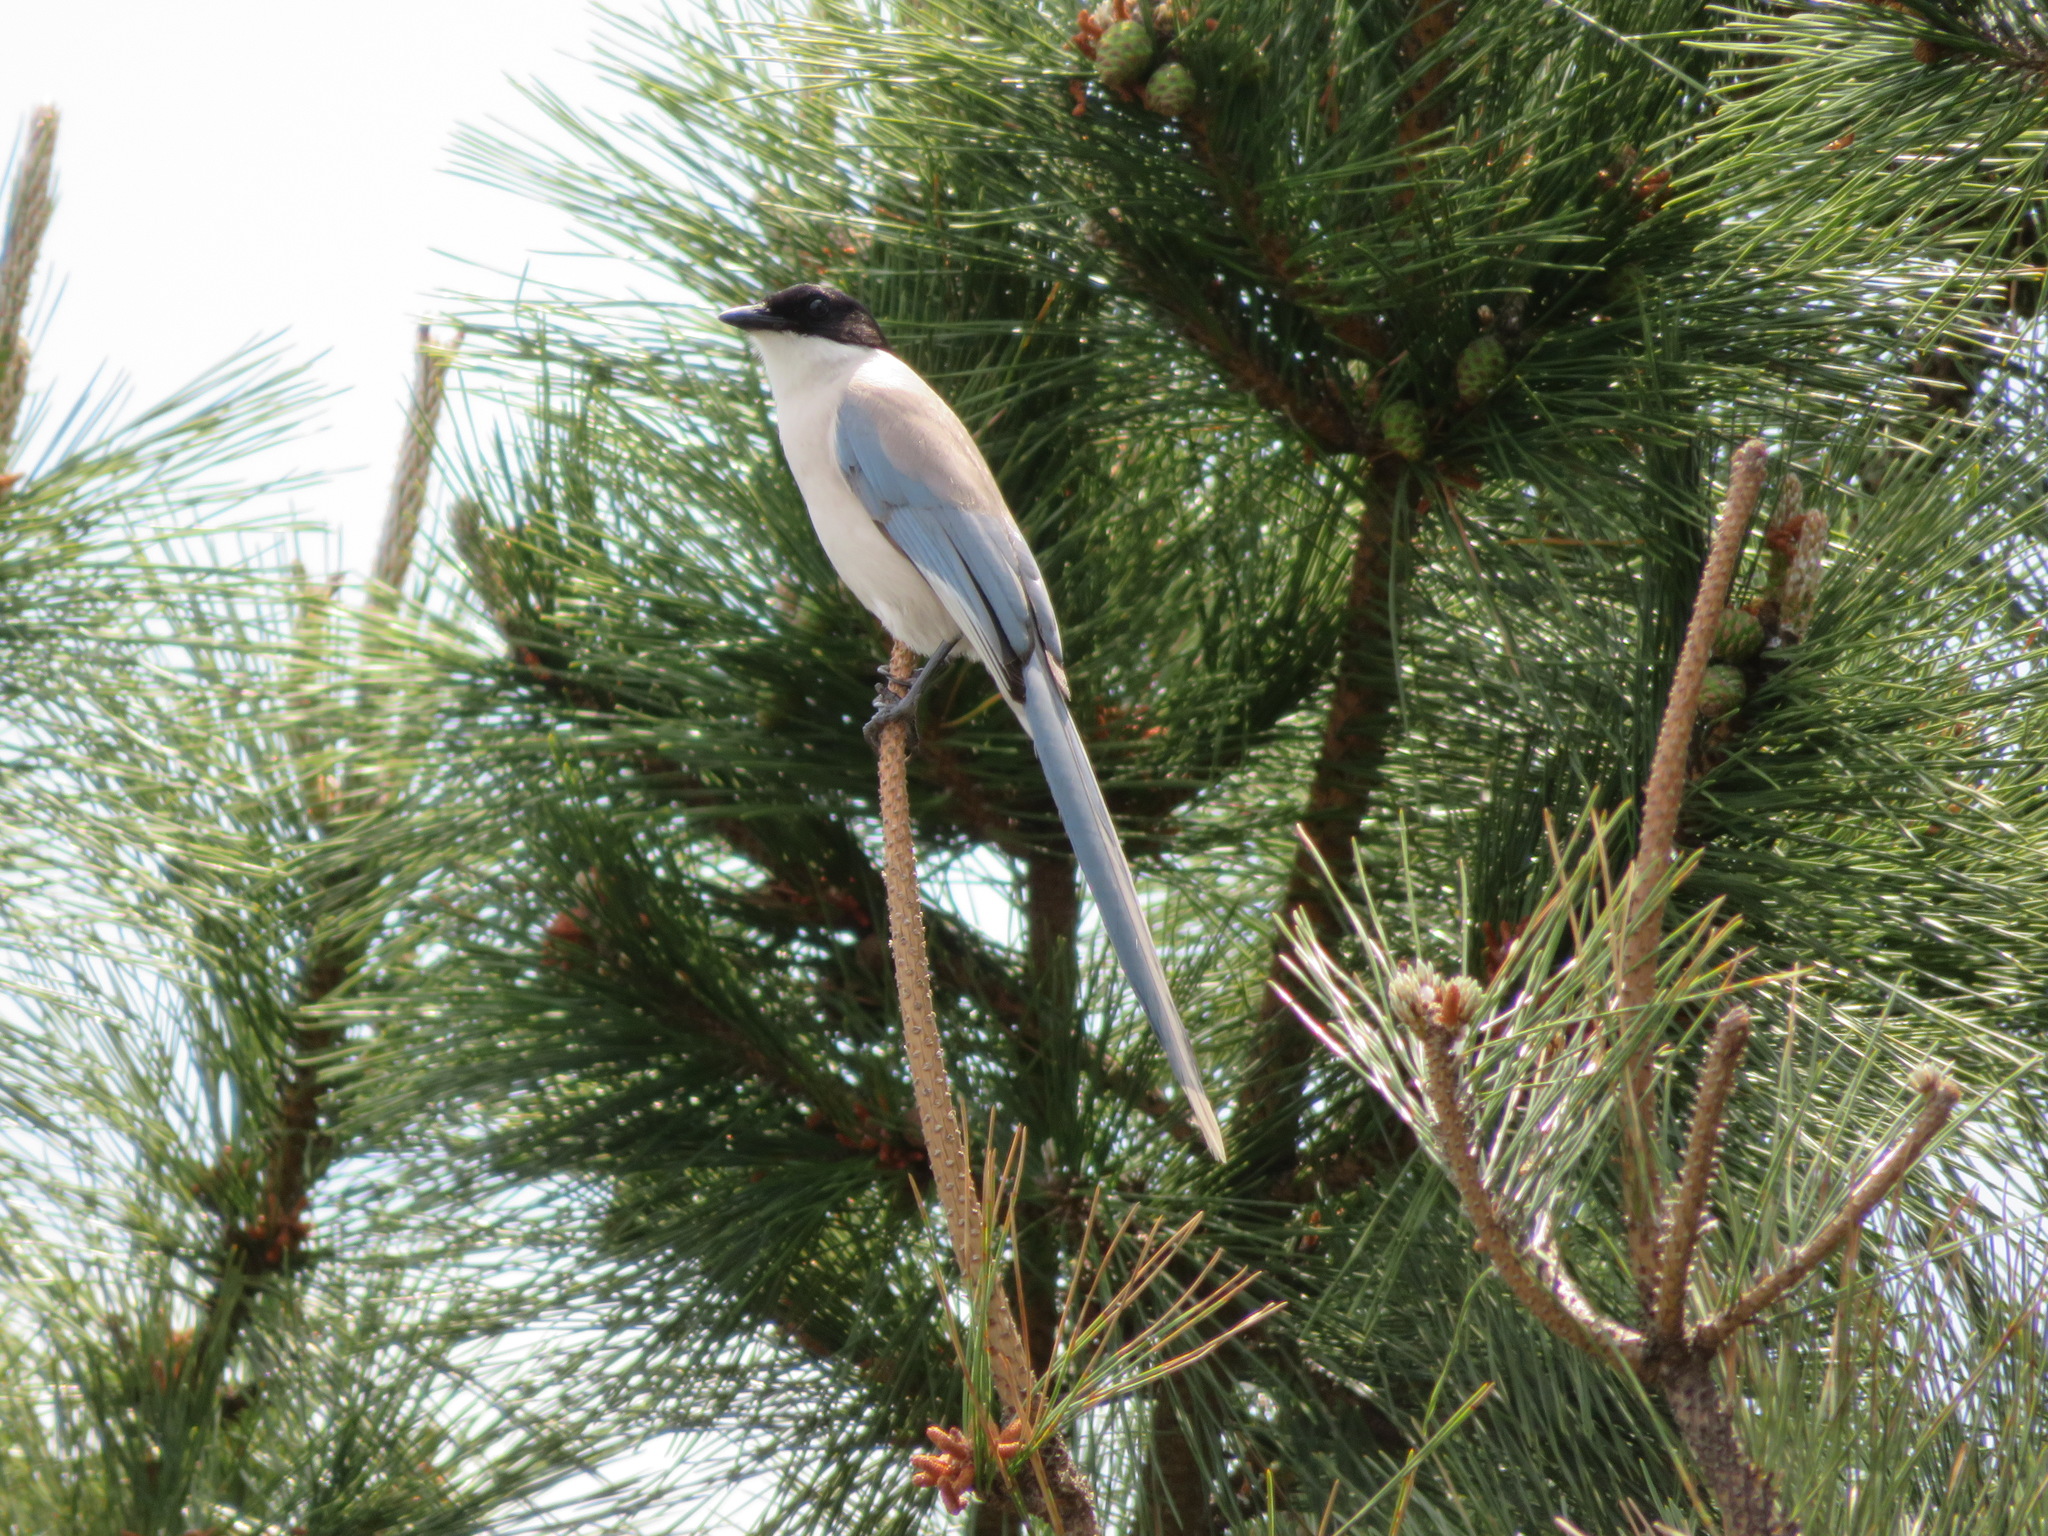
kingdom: Animalia
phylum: Chordata
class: Aves
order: Passeriformes
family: Corvidae
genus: Cyanopica
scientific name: Cyanopica cyanus
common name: Azure-winged magpie
